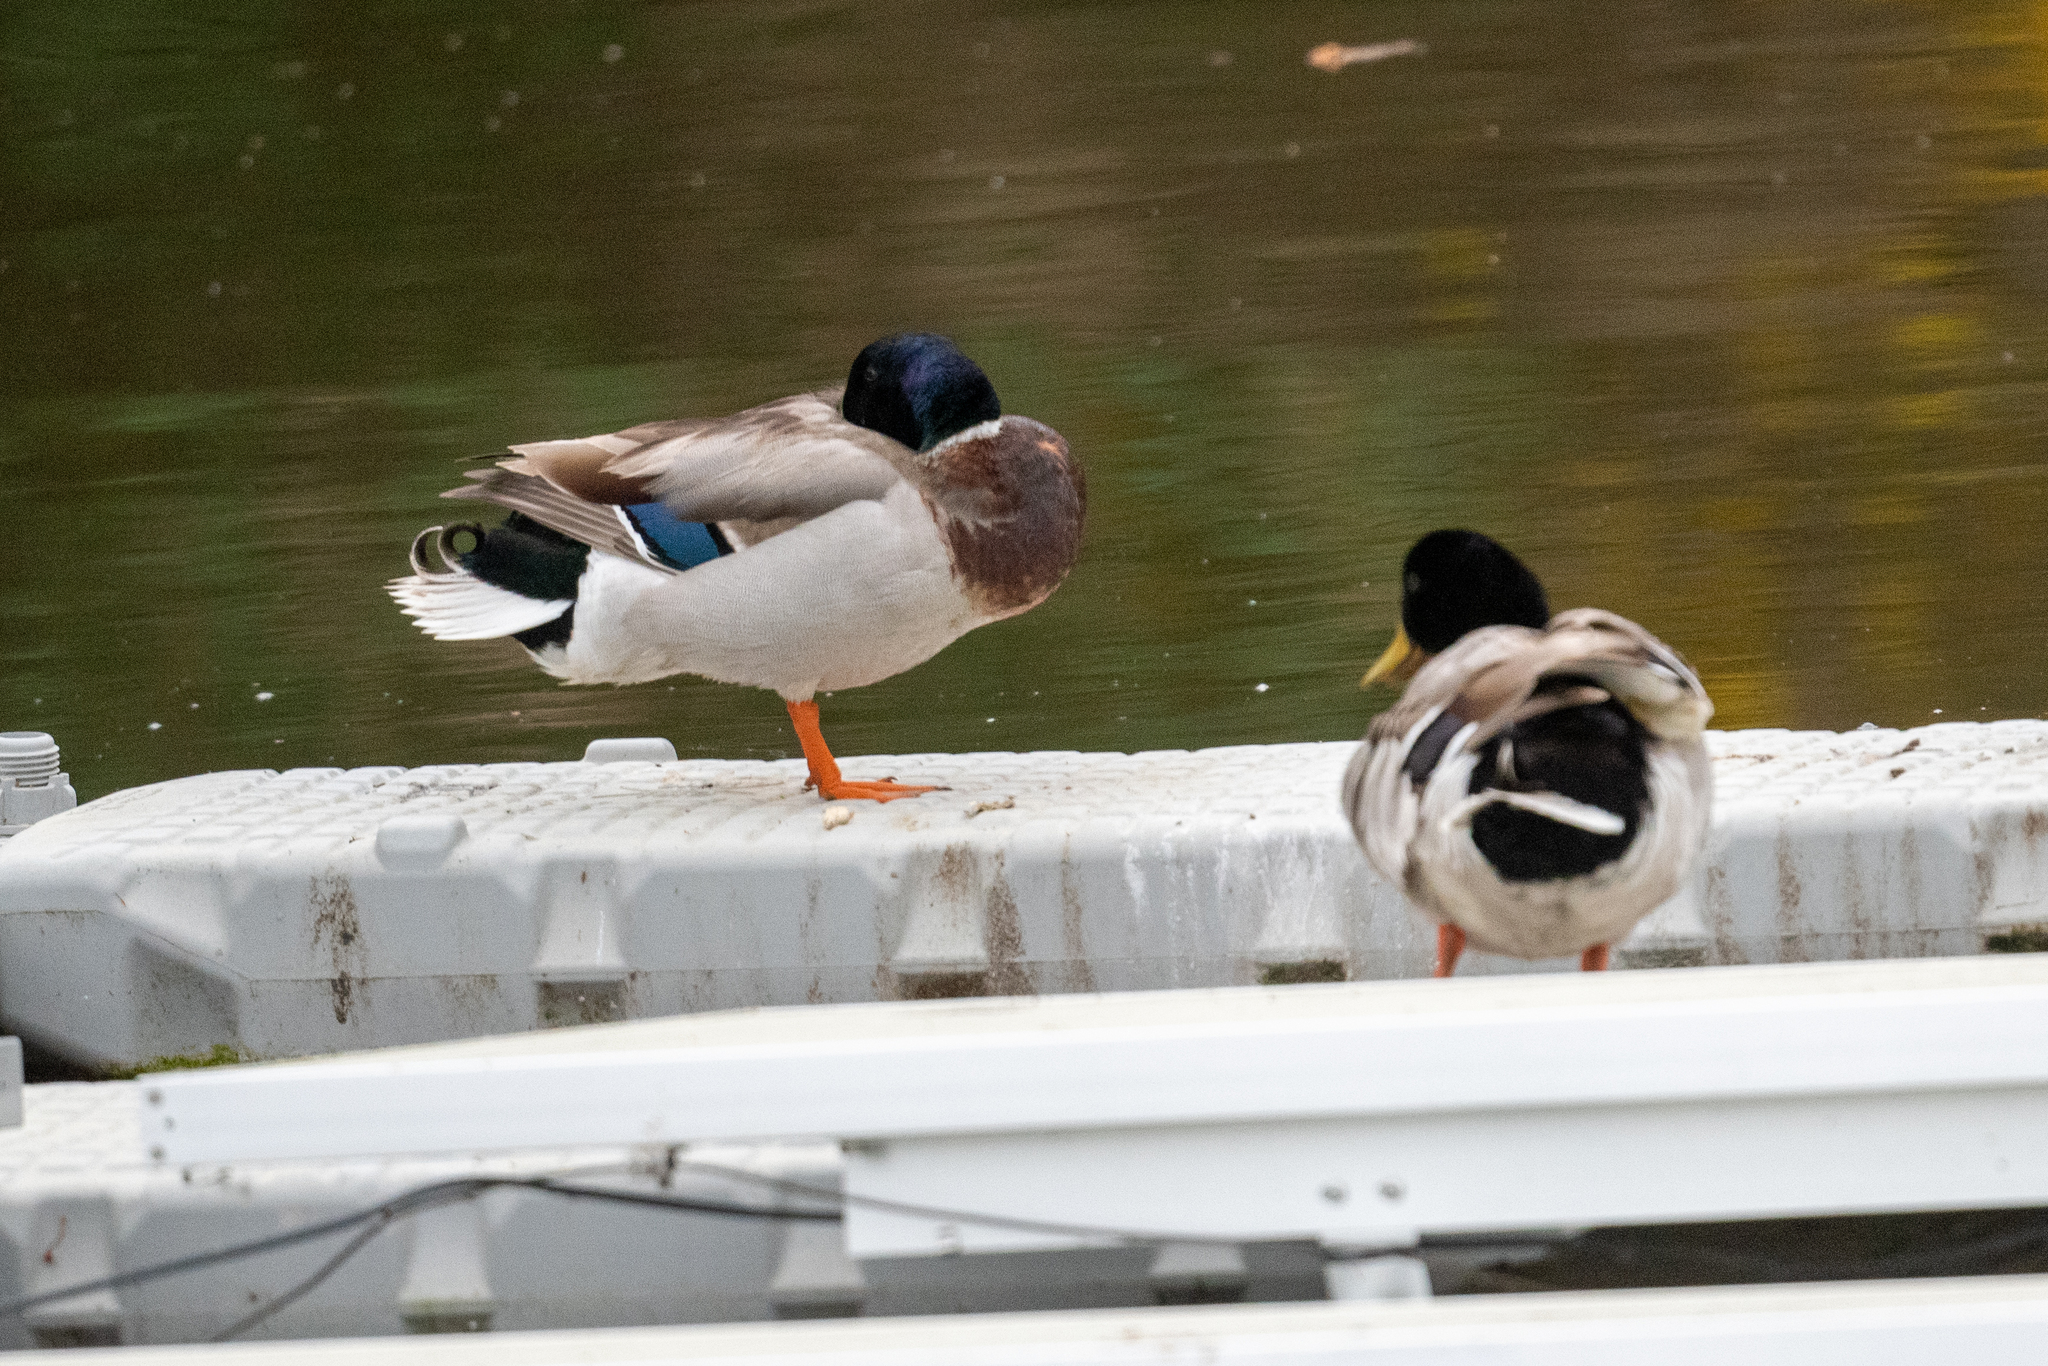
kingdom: Animalia
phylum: Chordata
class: Aves
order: Anseriformes
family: Anatidae
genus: Anas
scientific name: Anas platyrhynchos
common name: Mallard
